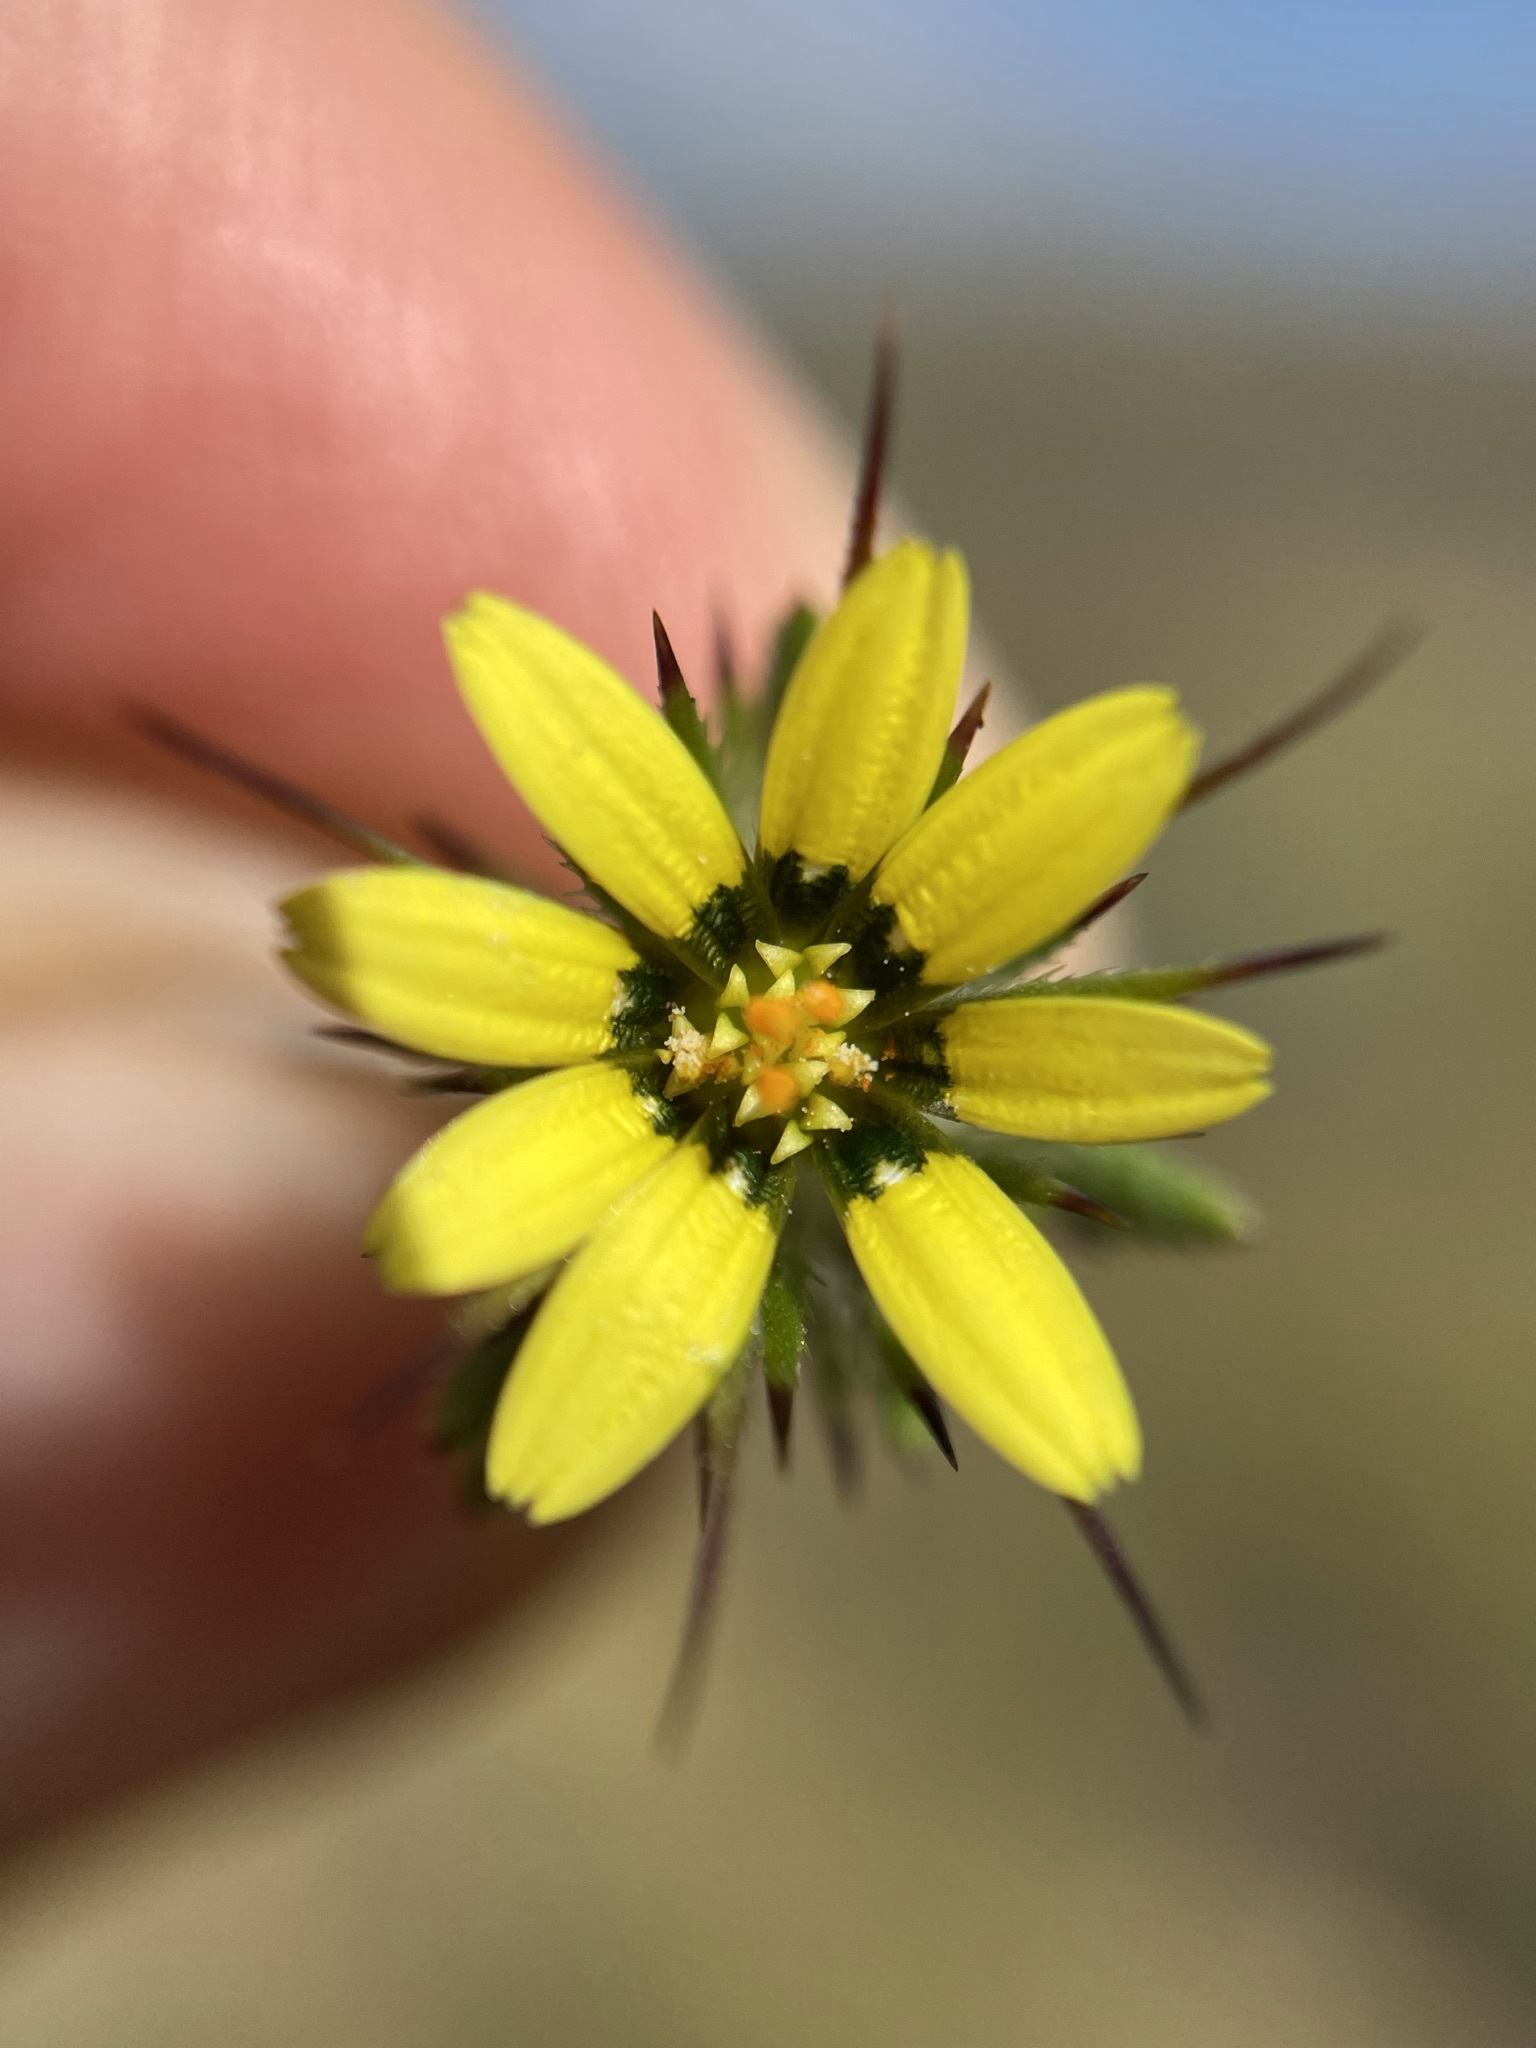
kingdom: Plantae
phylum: Tracheophyta
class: Magnoliopsida
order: Asterales
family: Asteraceae
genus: Gorteria
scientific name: Gorteria personata
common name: Gorteria
